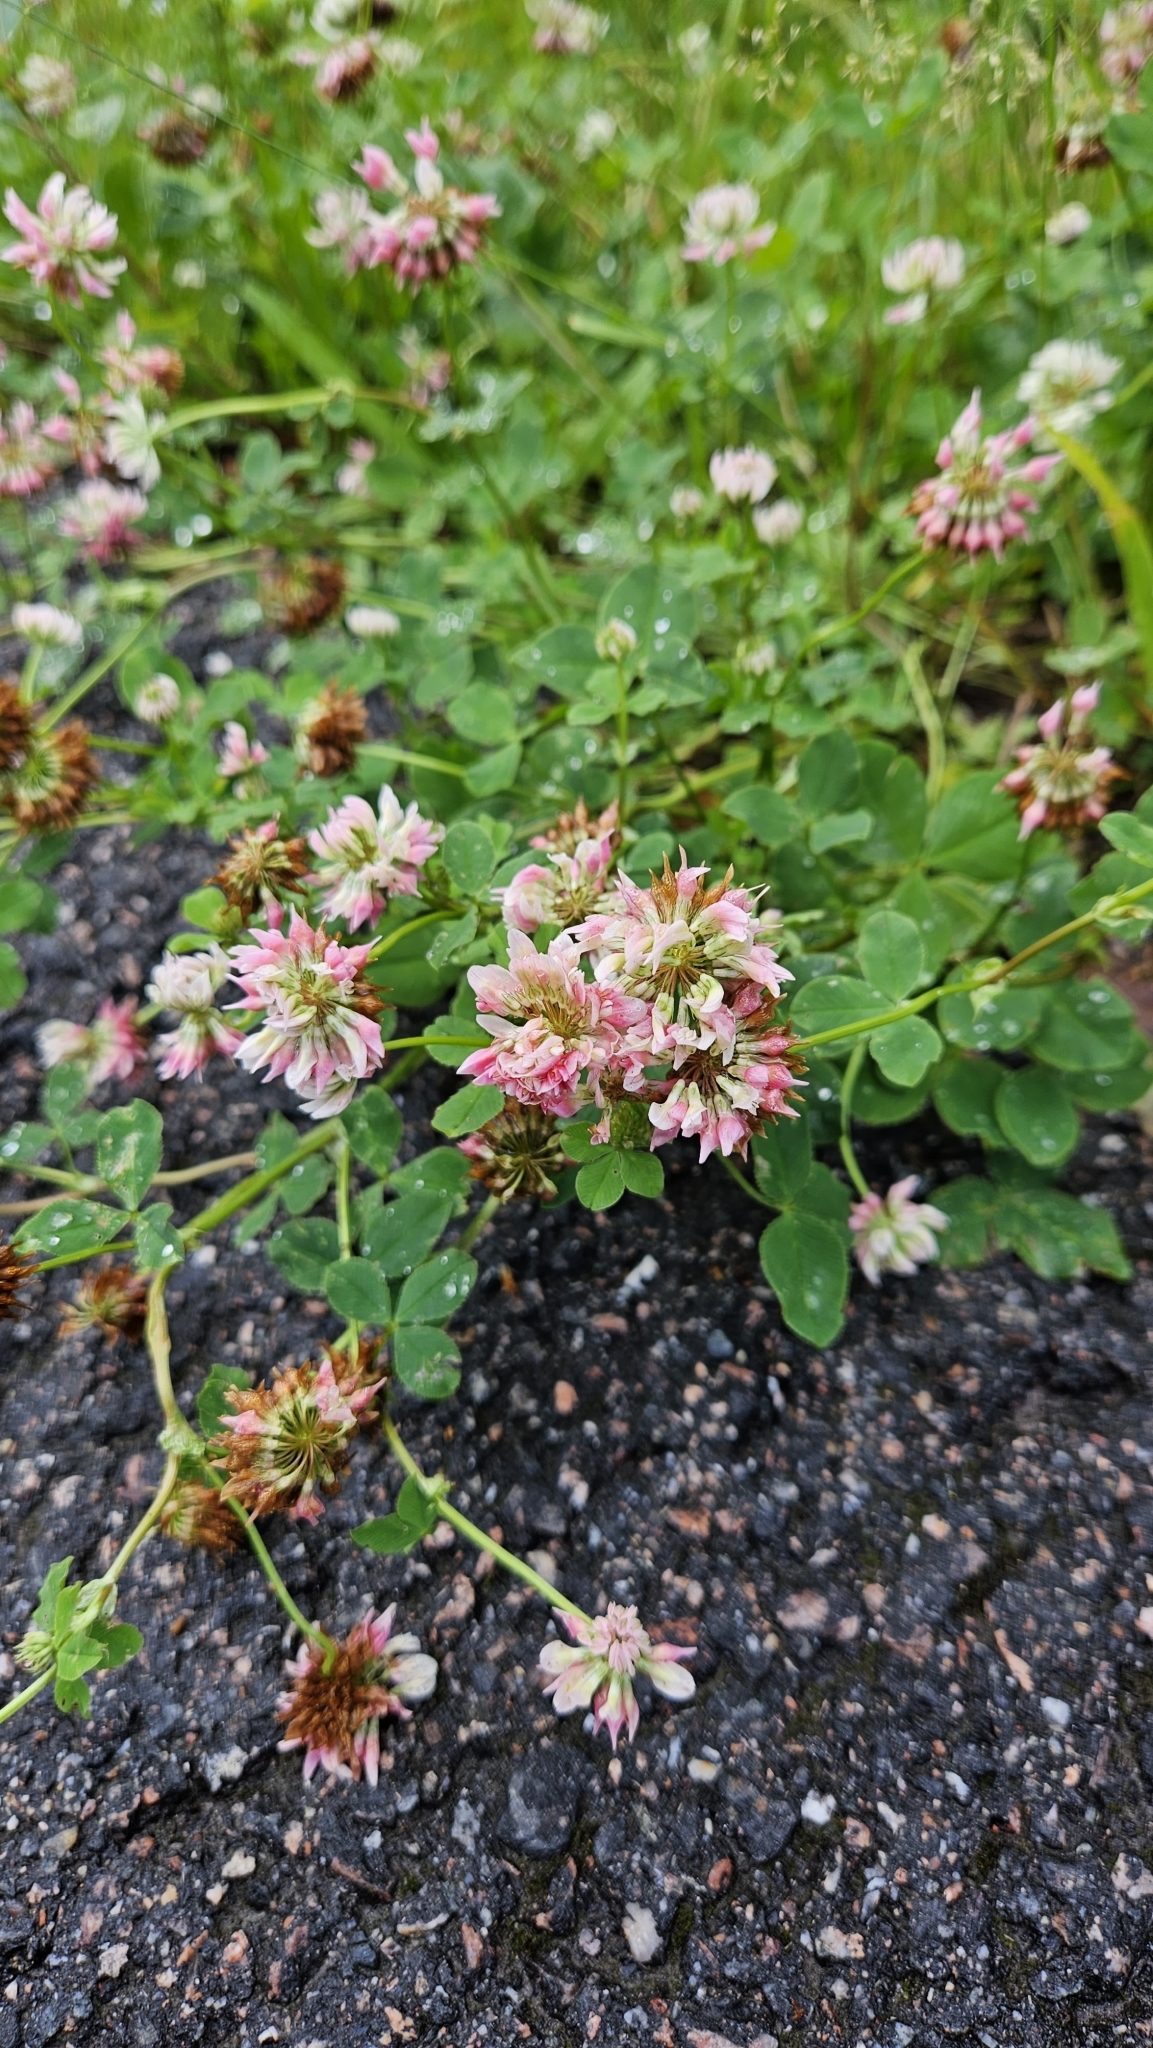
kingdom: Plantae
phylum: Tracheophyta
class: Magnoliopsida
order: Fabales
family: Fabaceae
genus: Trifolium
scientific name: Trifolium hybridum
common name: Alsike clover
